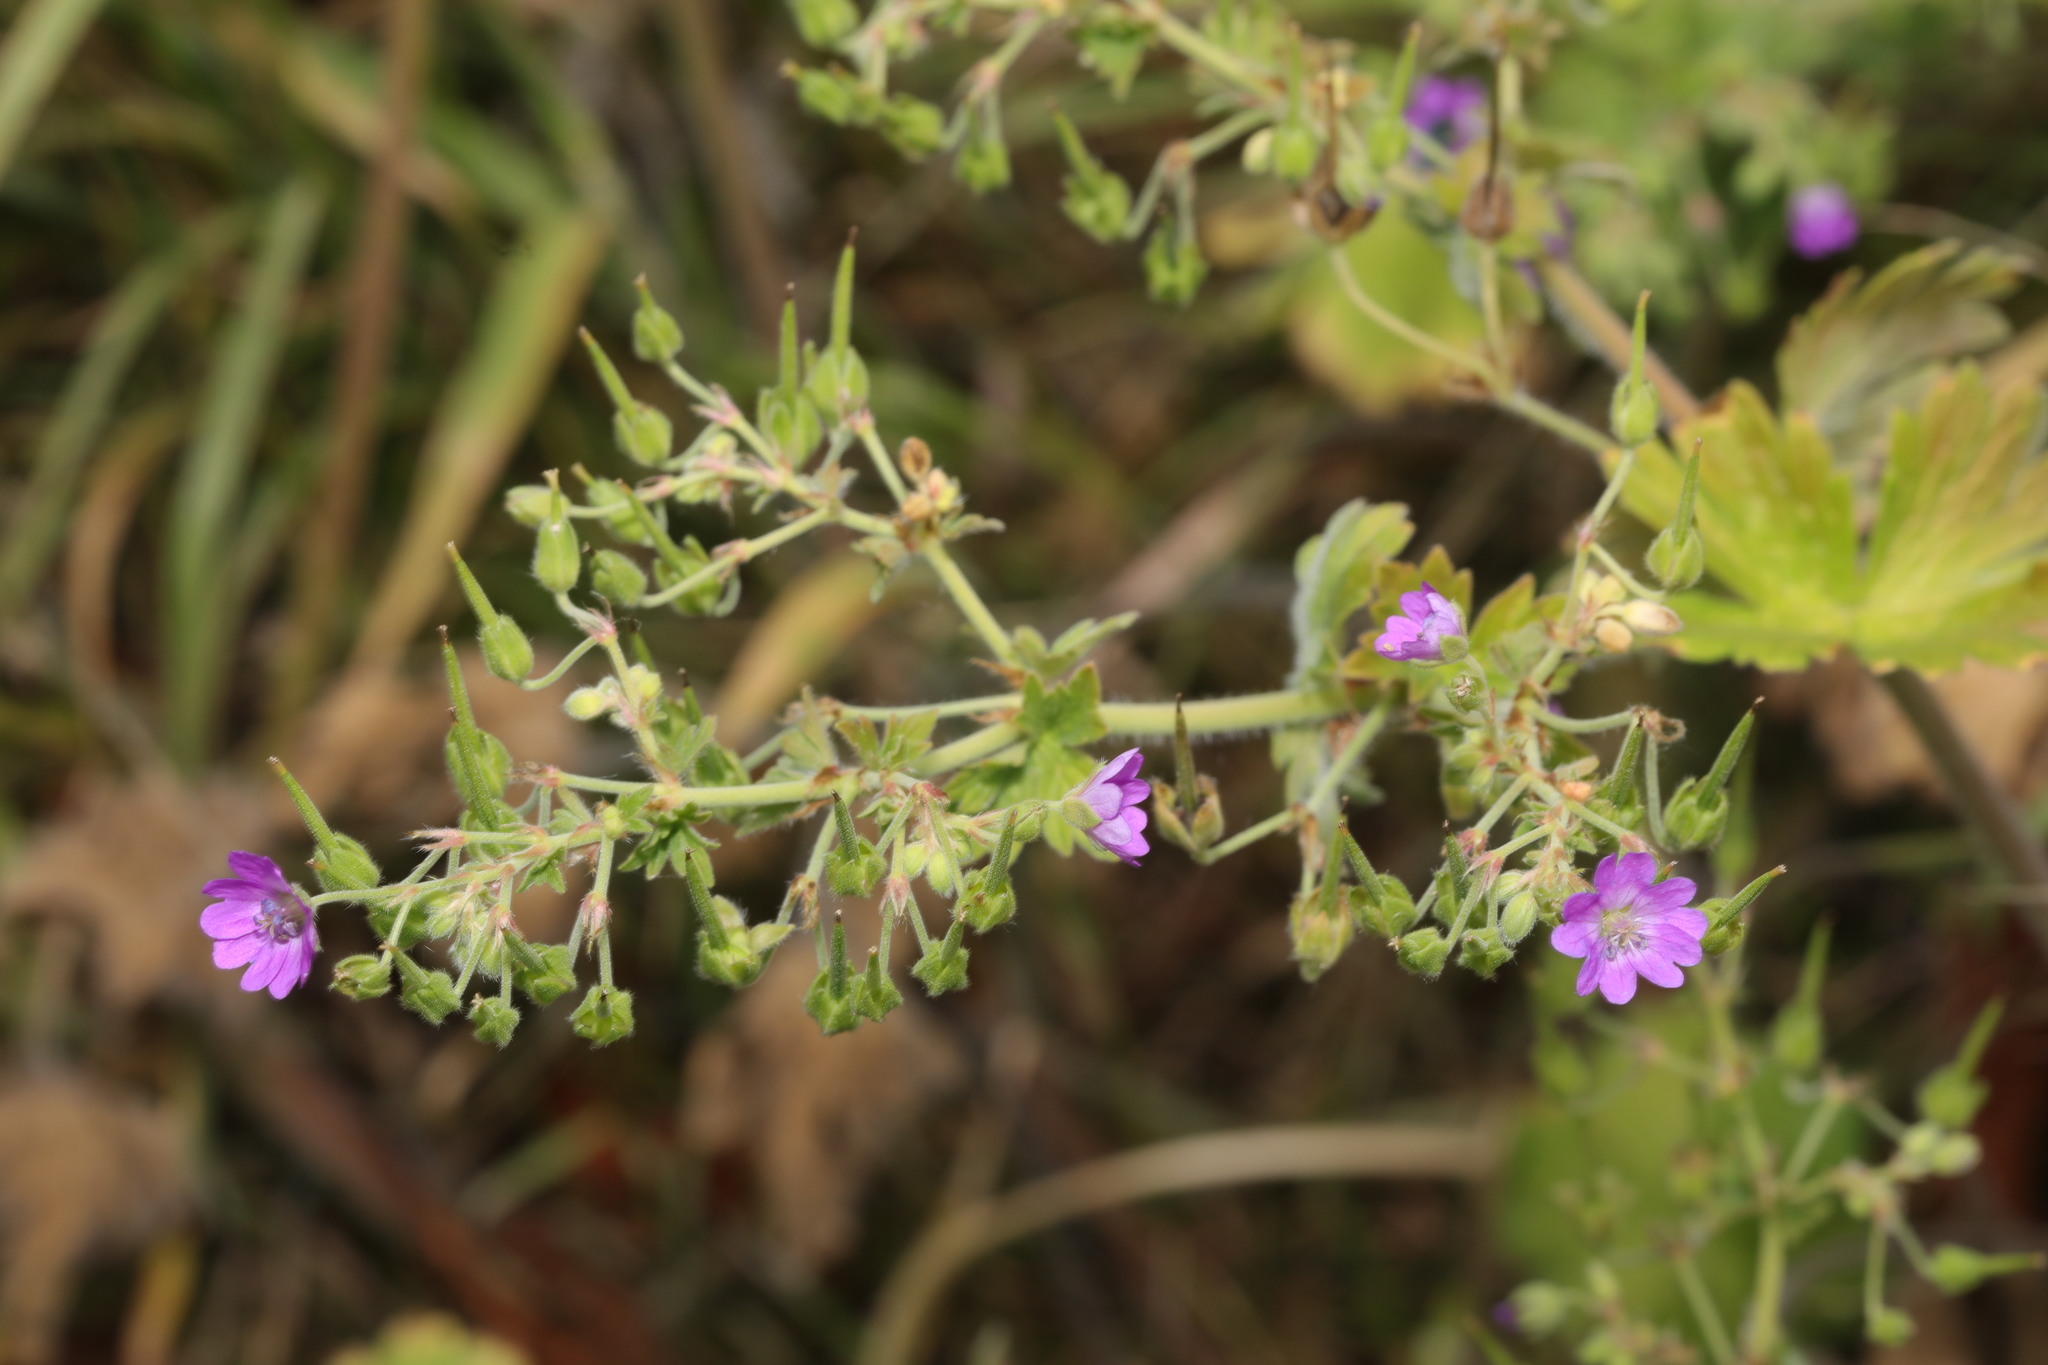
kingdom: Plantae
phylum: Tracheophyta
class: Magnoliopsida
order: Geraniales
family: Geraniaceae
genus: Geranium
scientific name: Geranium pyrenaicum
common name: Hedgerow crane's-bill
